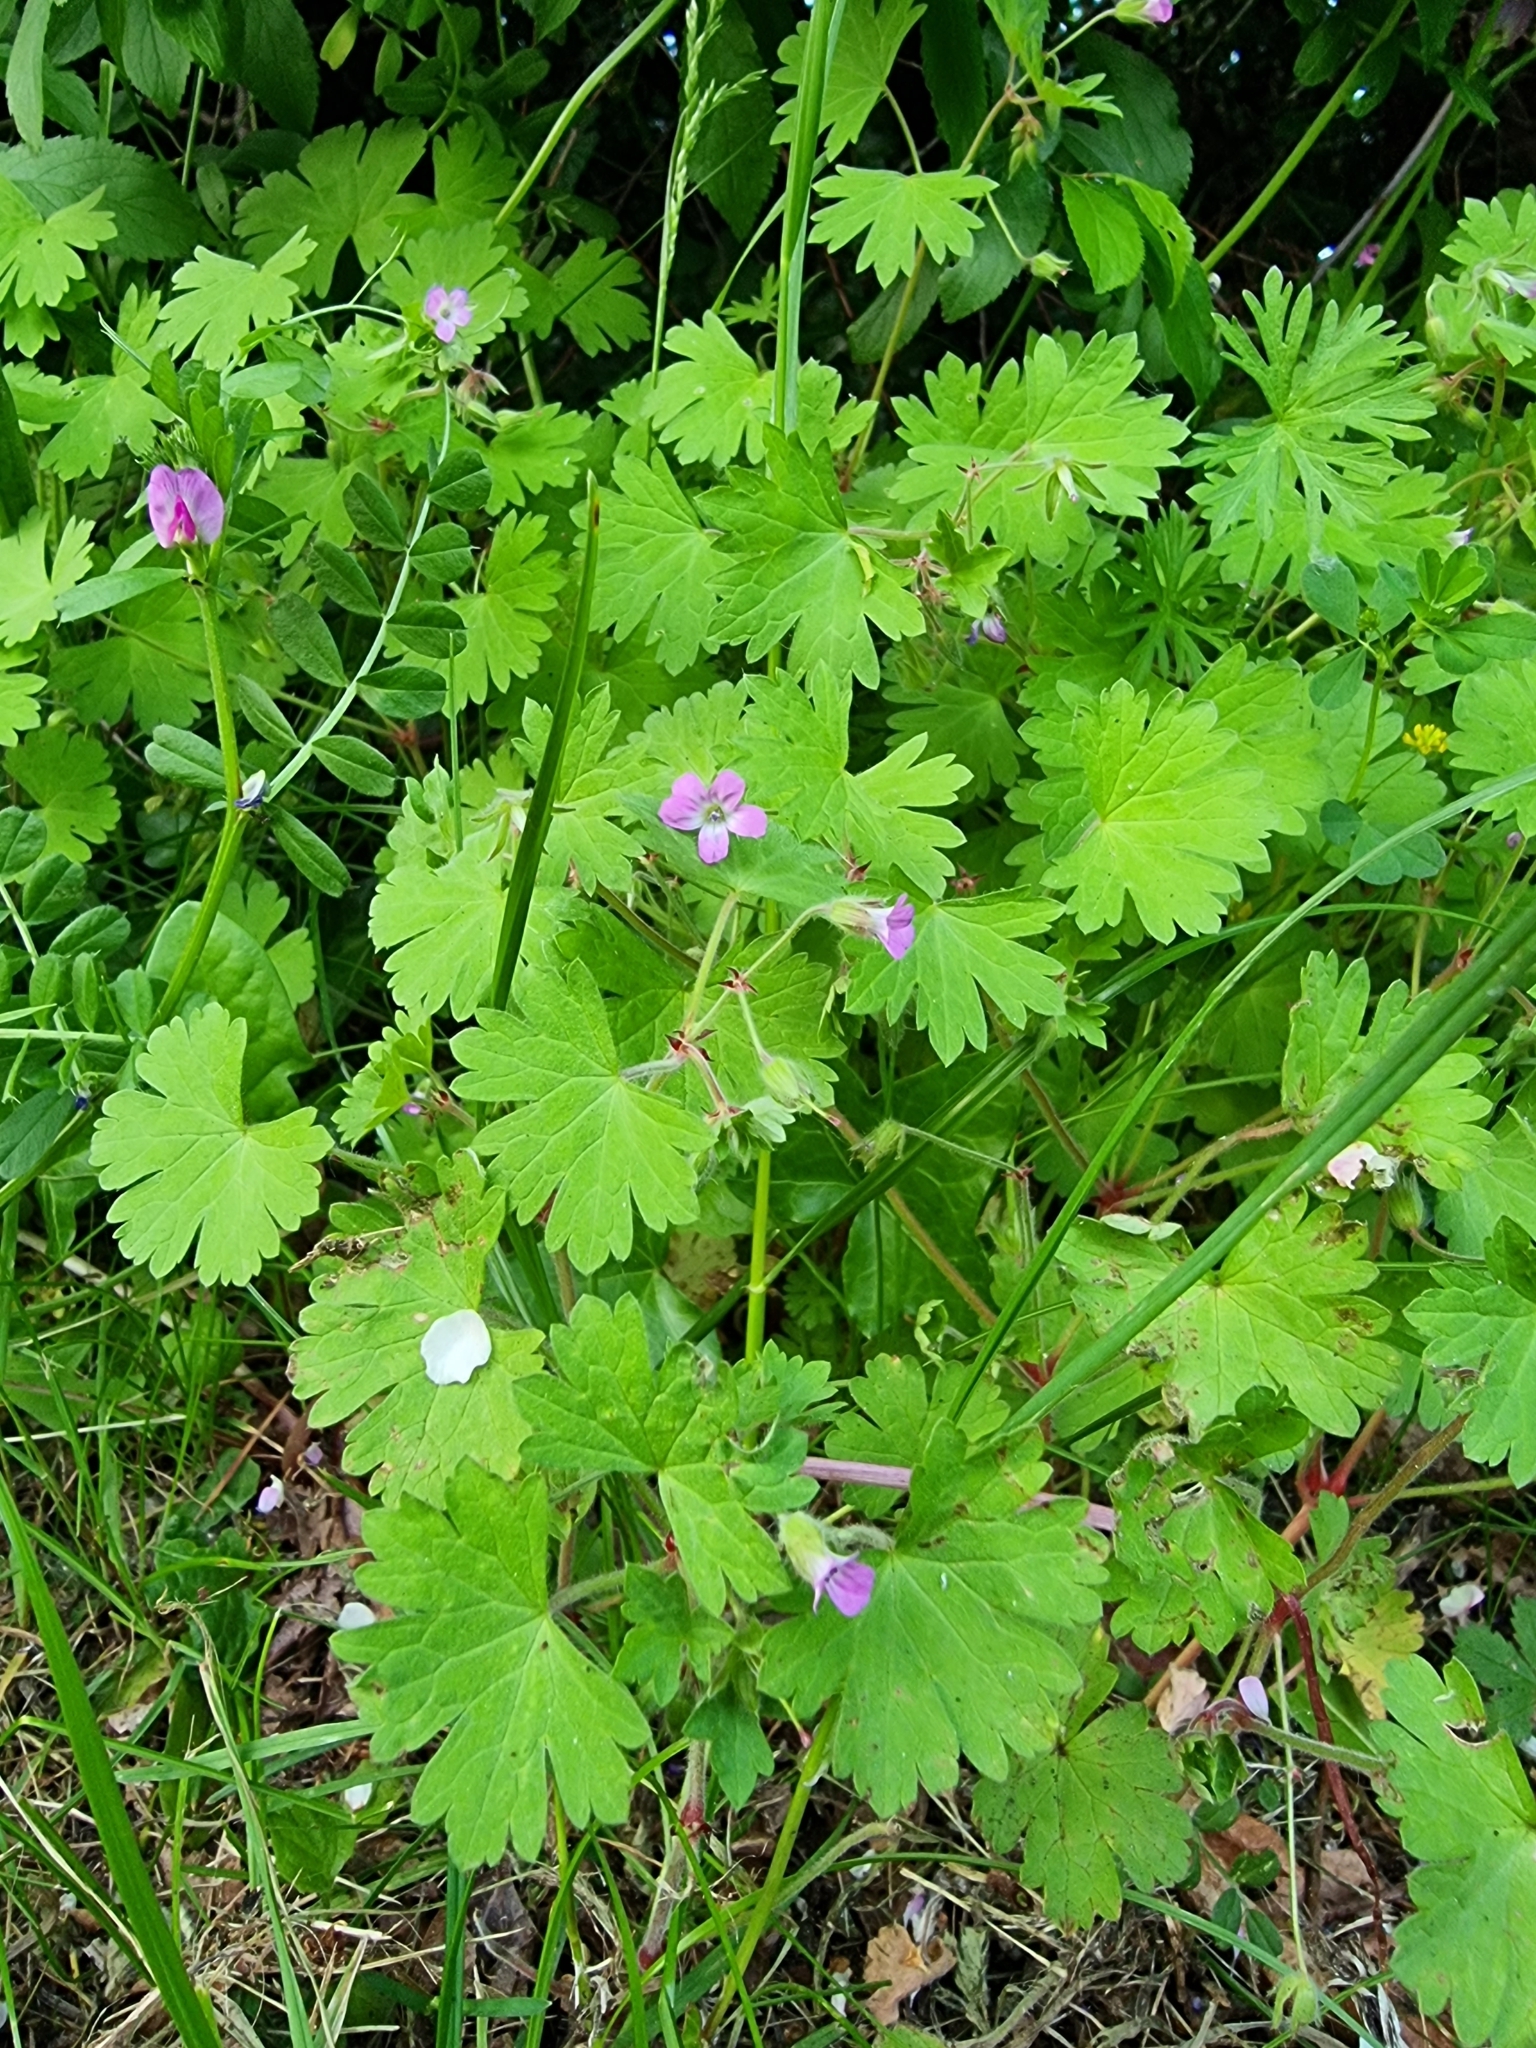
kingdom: Plantae
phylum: Tracheophyta
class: Magnoliopsida
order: Geraniales
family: Geraniaceae
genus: Geranium
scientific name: Geranium rotundifolium
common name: Round-leaved crane's-bill
